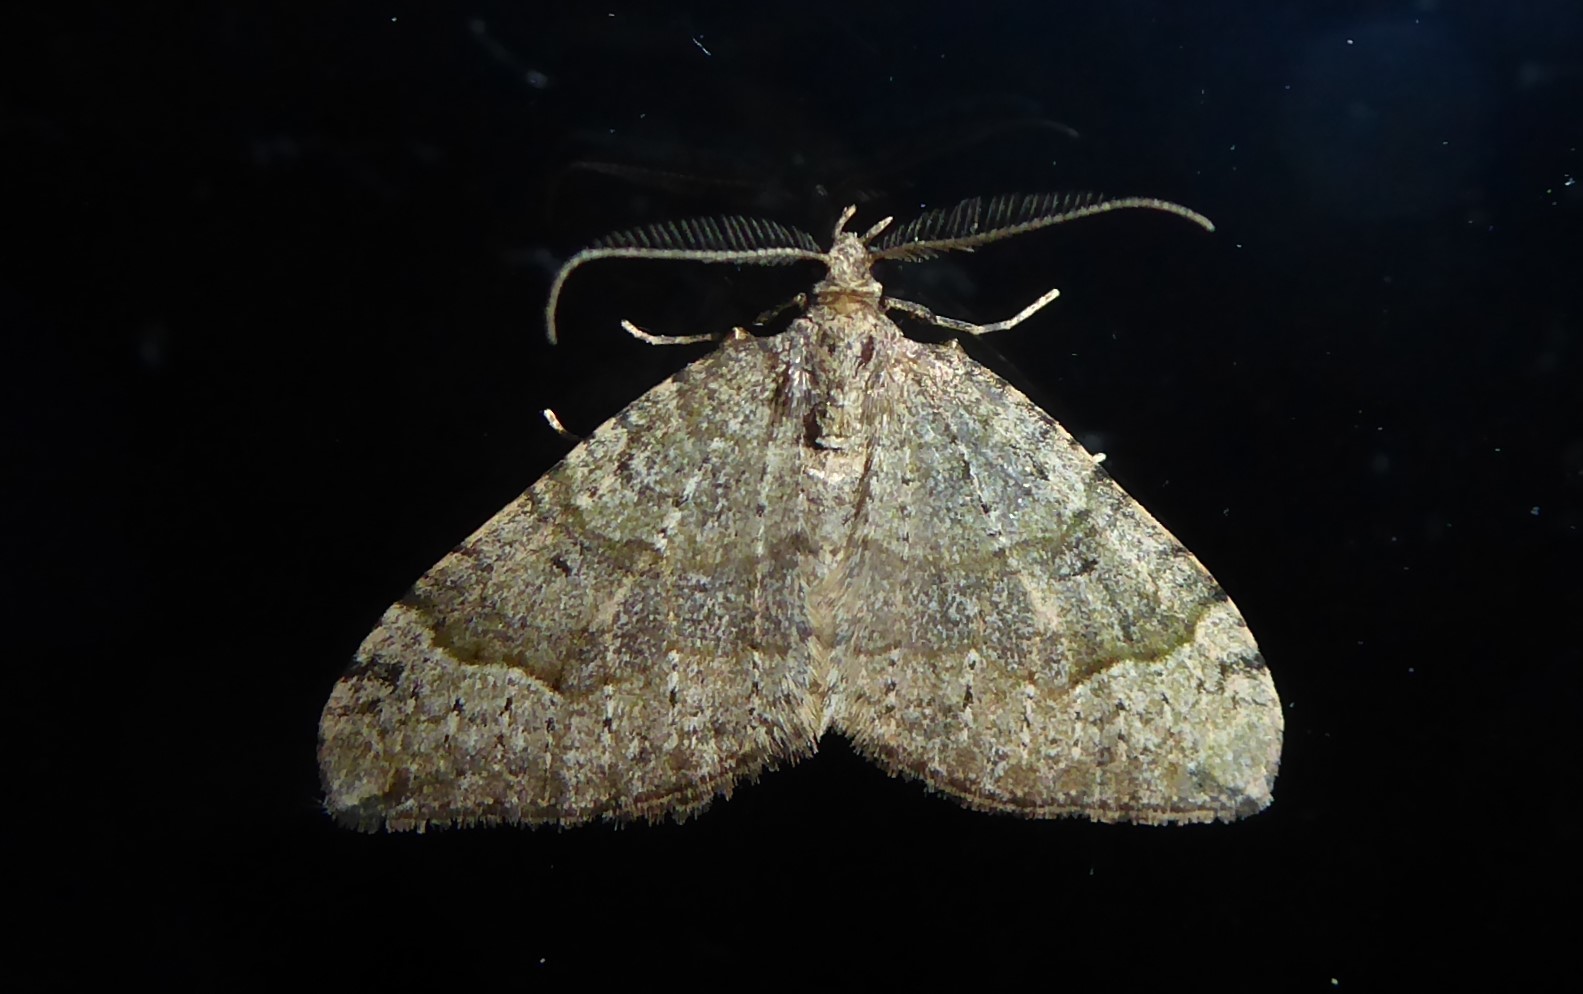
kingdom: Animalia
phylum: Arthropoda
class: Insecta
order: Lepidoptera
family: Geometridae
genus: Epyaxa
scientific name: Epyaxa rosearia
